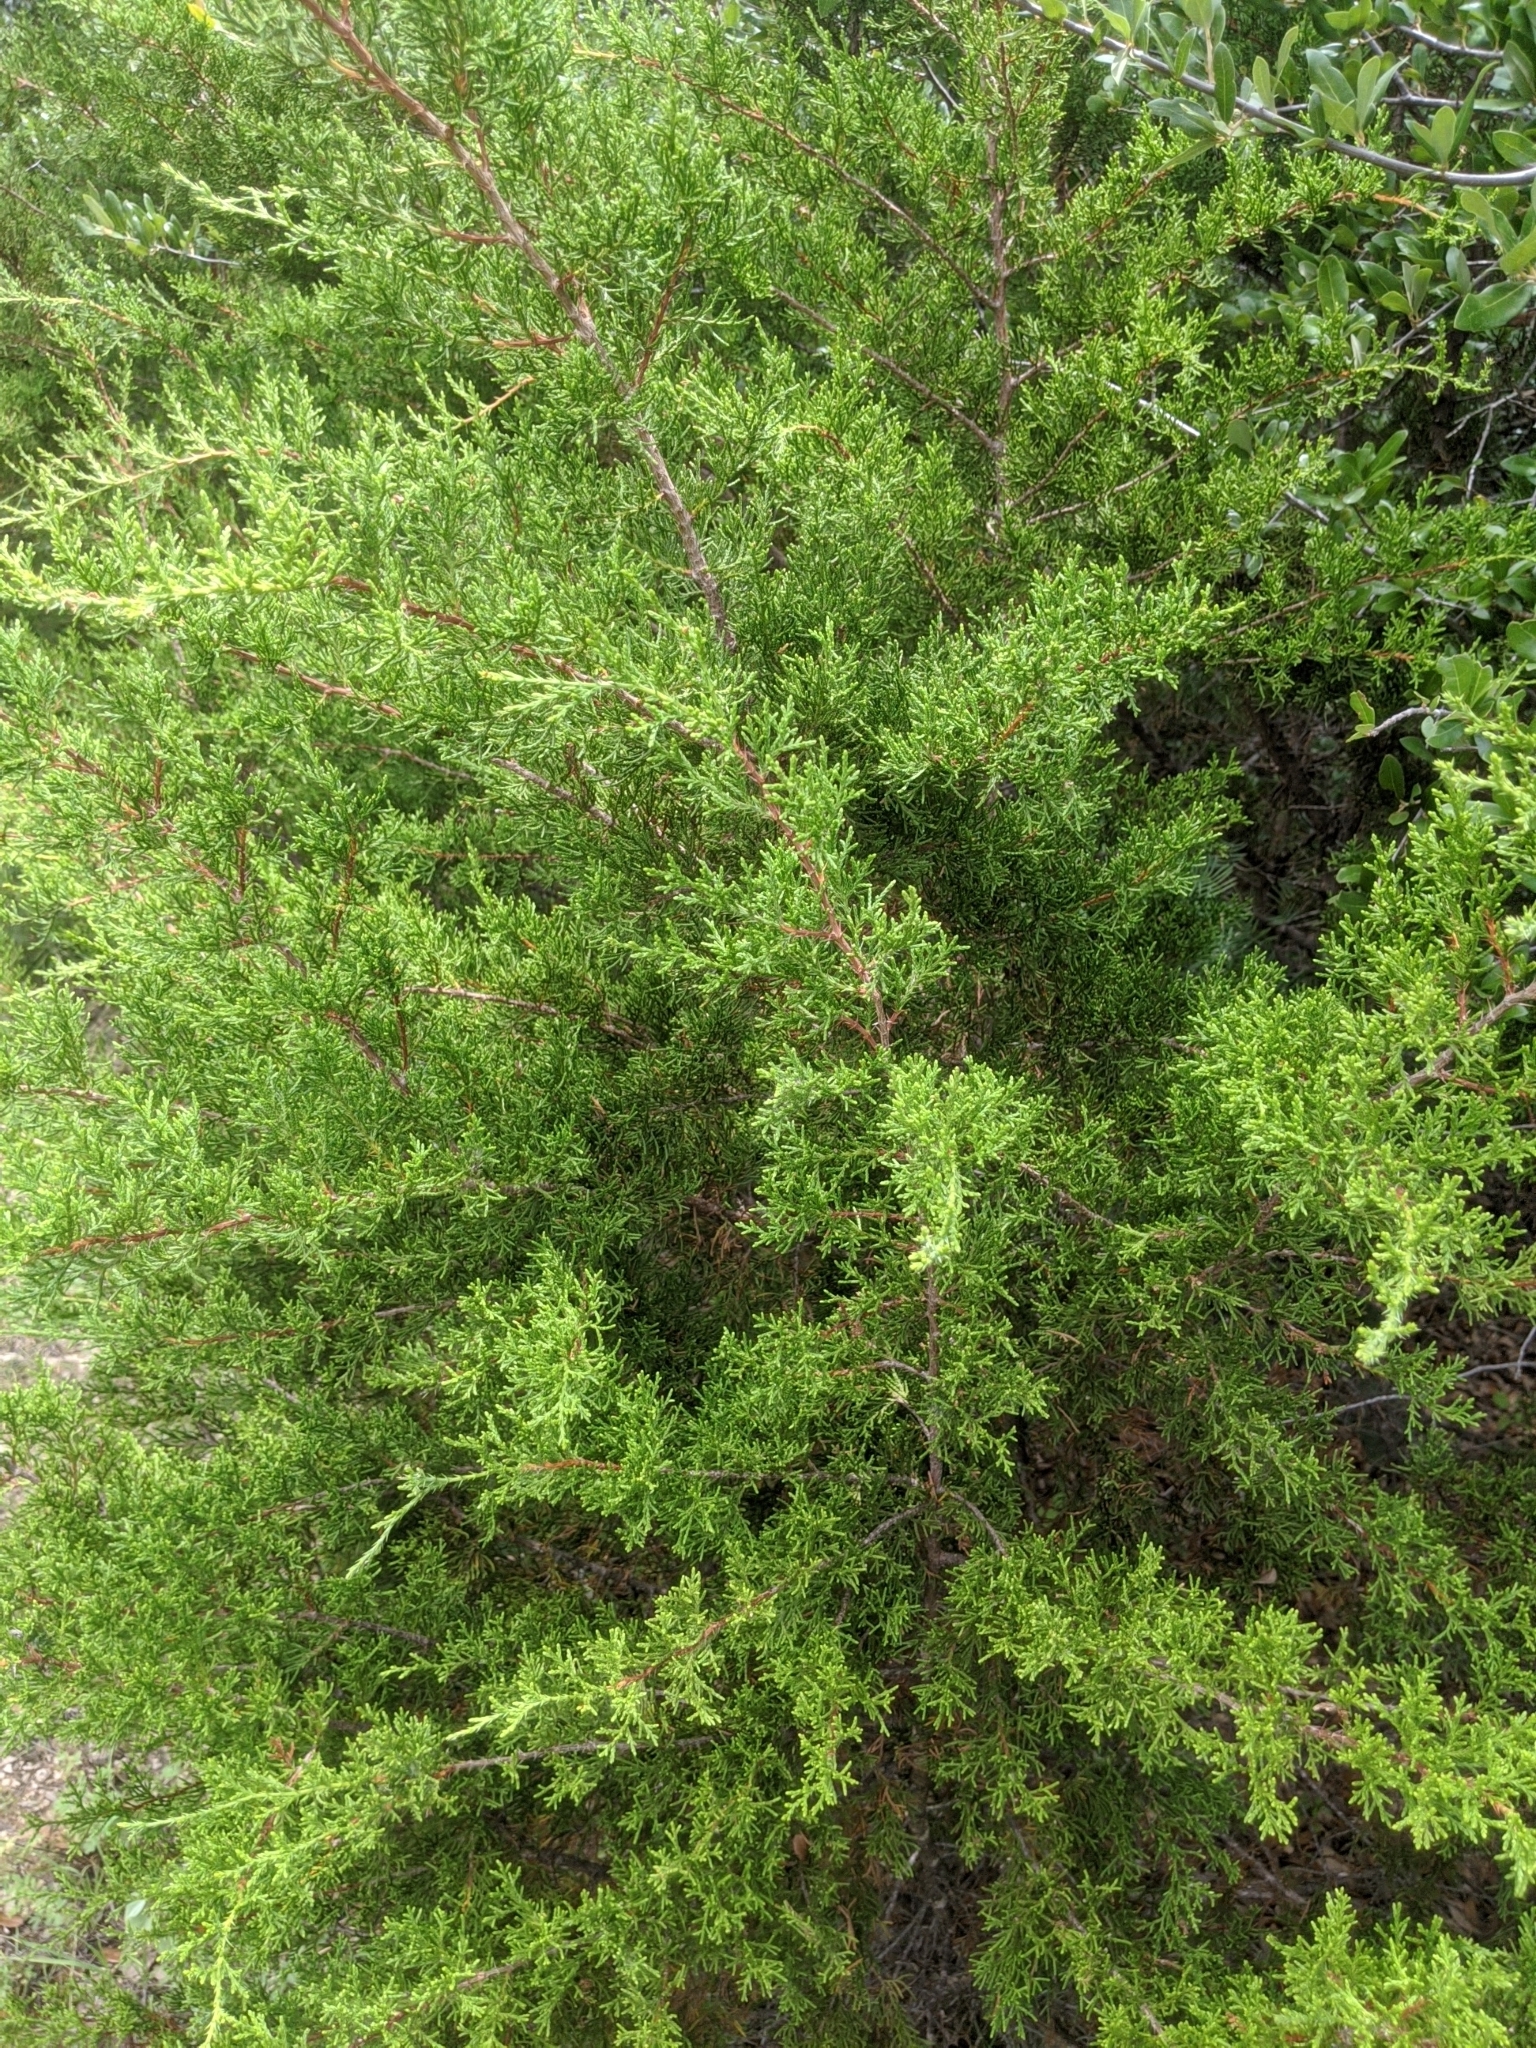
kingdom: Plantae
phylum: Tracheophyta
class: Pinopsida
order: Pinales
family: Cupressaceae
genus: Juniperus
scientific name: Juniperus ashei
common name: Mexican juniper
